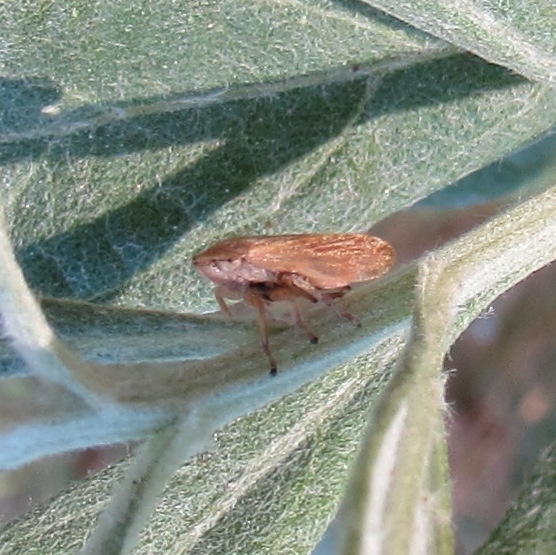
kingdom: Animalia
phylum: Arthropoda
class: Insecta
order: Hemiptera
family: Aphrophoridae
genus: Philaenus
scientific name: Philaenus spumarius
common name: Meadow spittlebug
